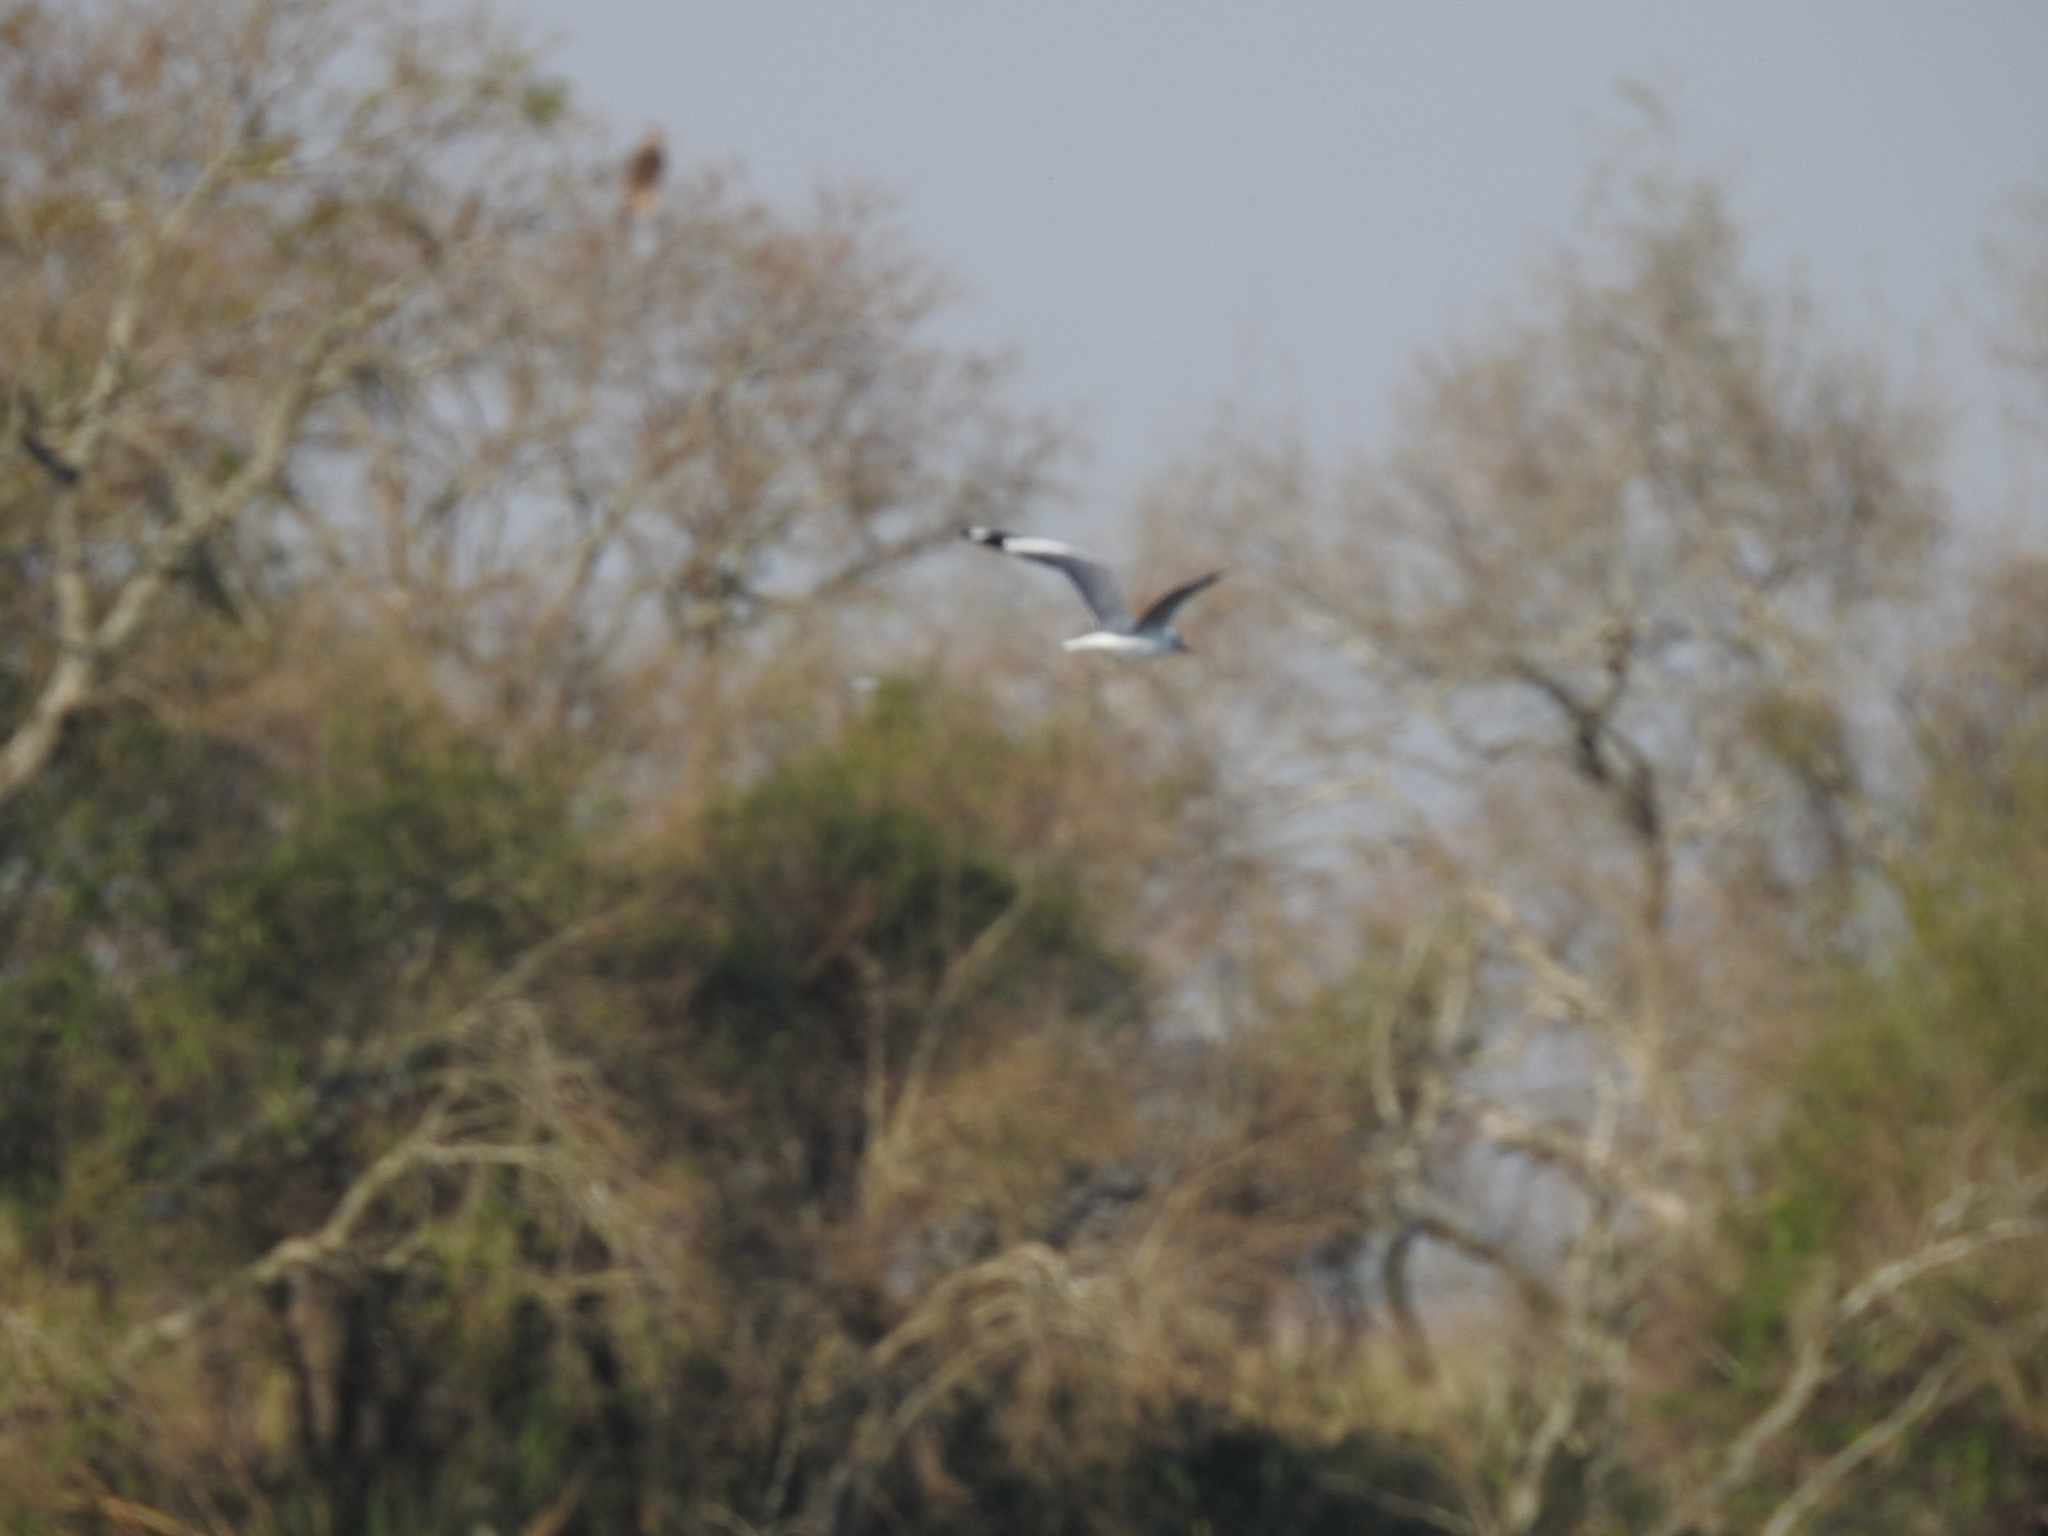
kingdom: Animalia
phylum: Chordata
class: Aves
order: Charadriiformes
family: Laridae
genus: Chroicocephalus
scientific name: Chroicocephalus cirrocephalus
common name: Grey-headed gull
